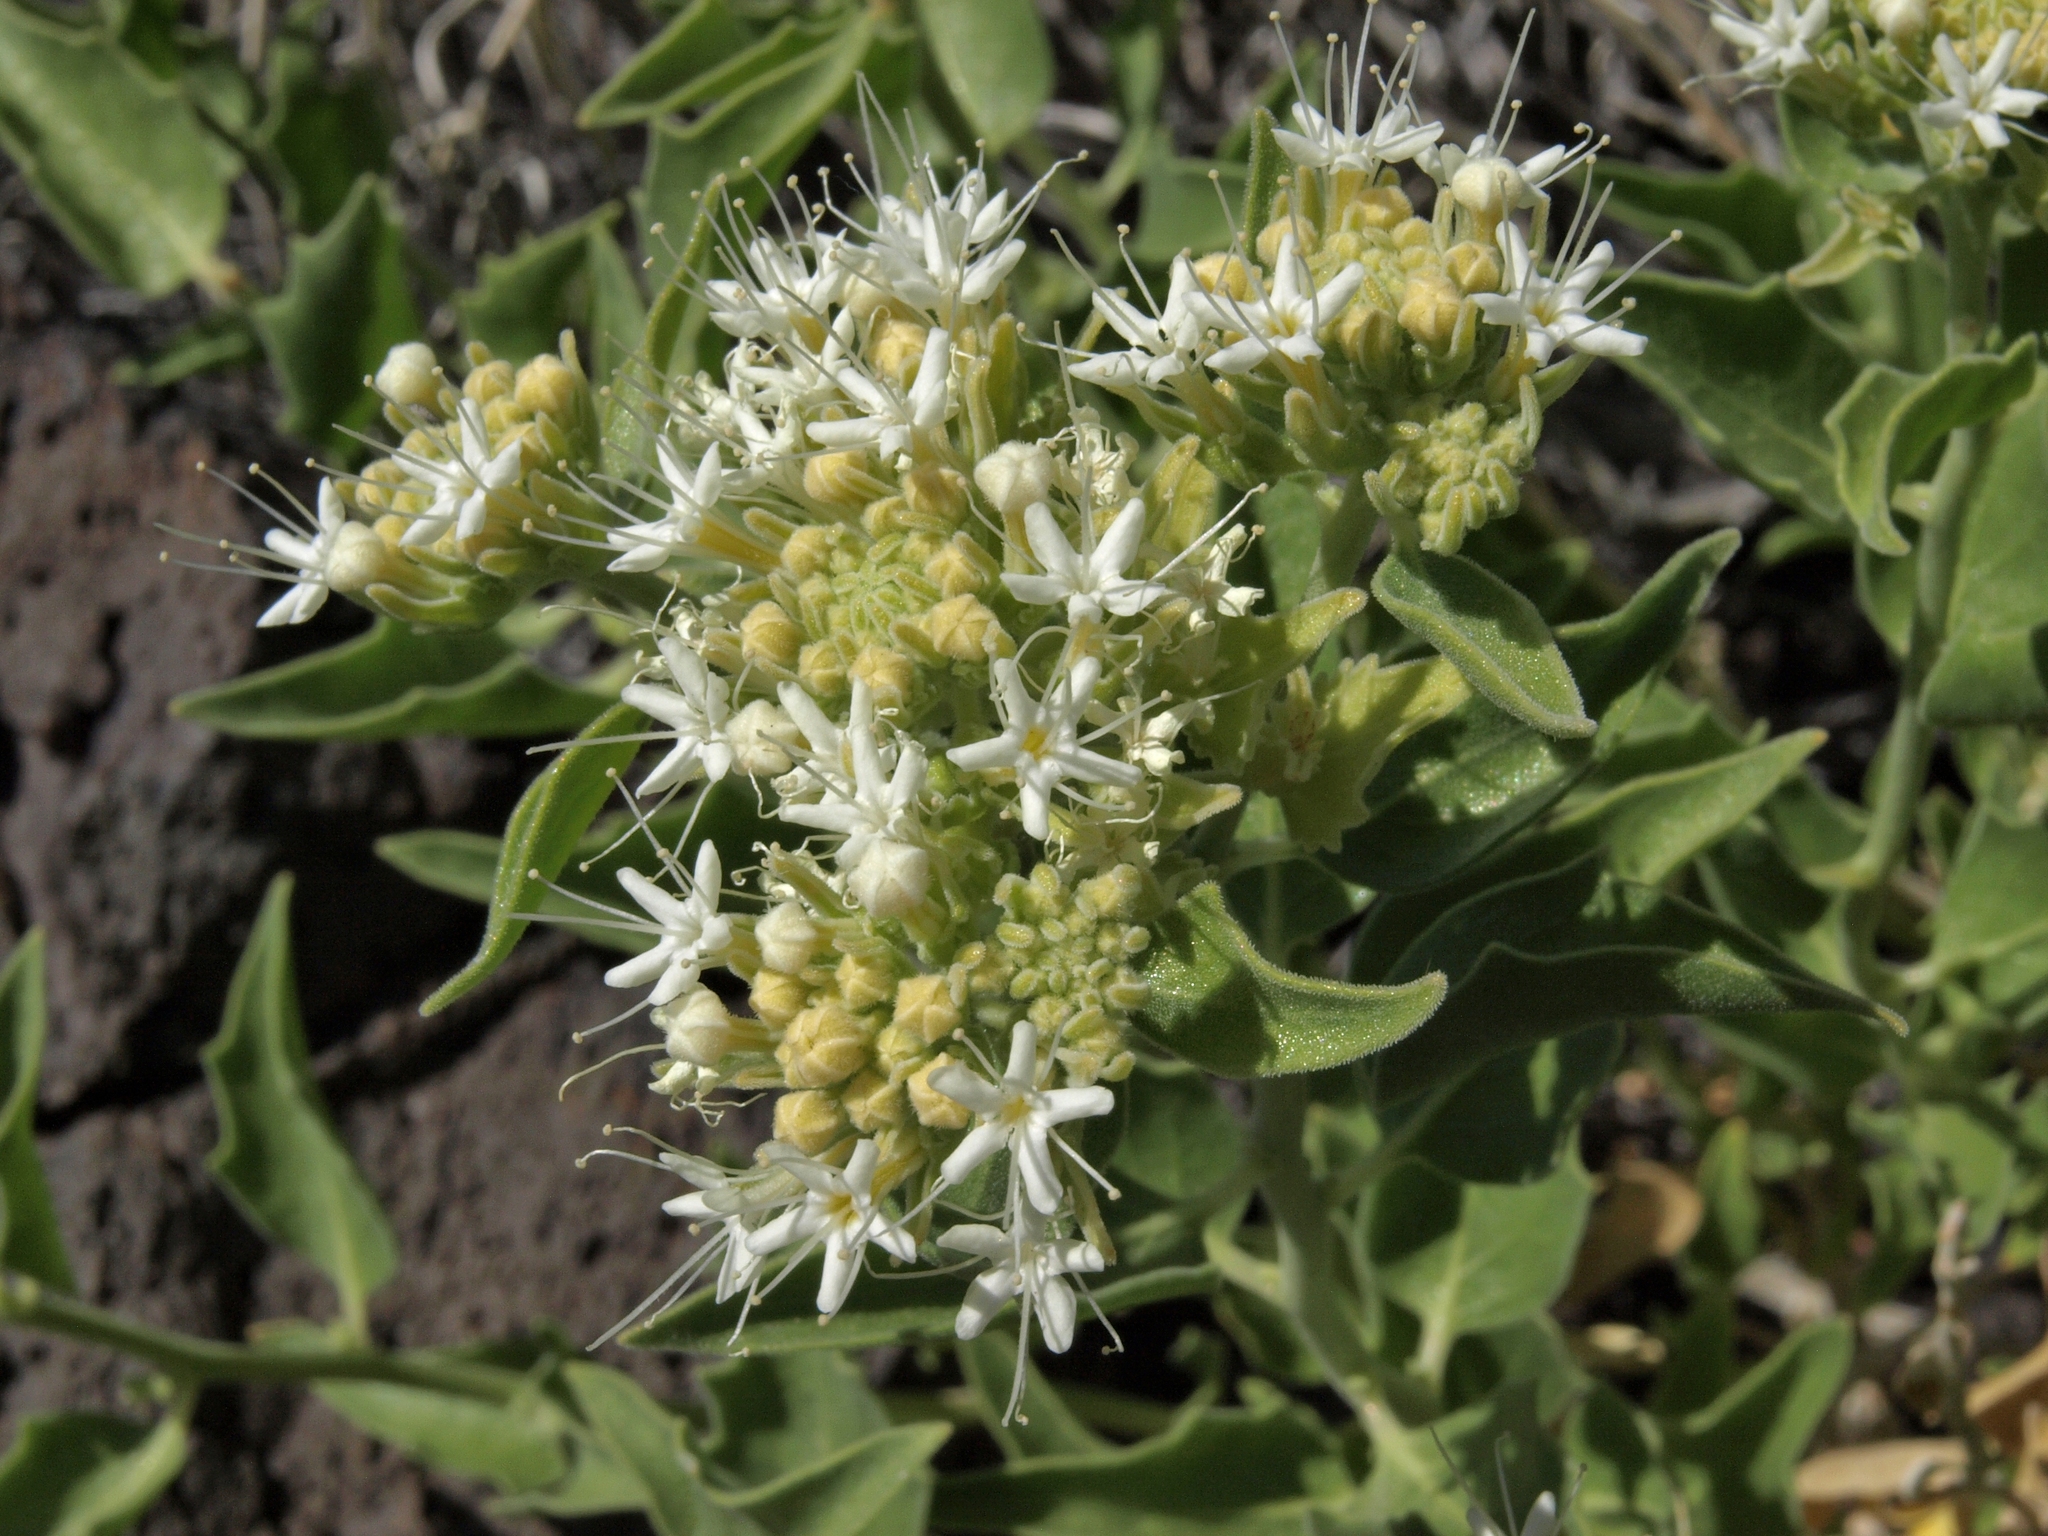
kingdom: Plantae
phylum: Tracheophyta
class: Magnoliopsida
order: Cornales
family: Loasaceae
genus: Petalonyx
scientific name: Petalonyx nitidus
